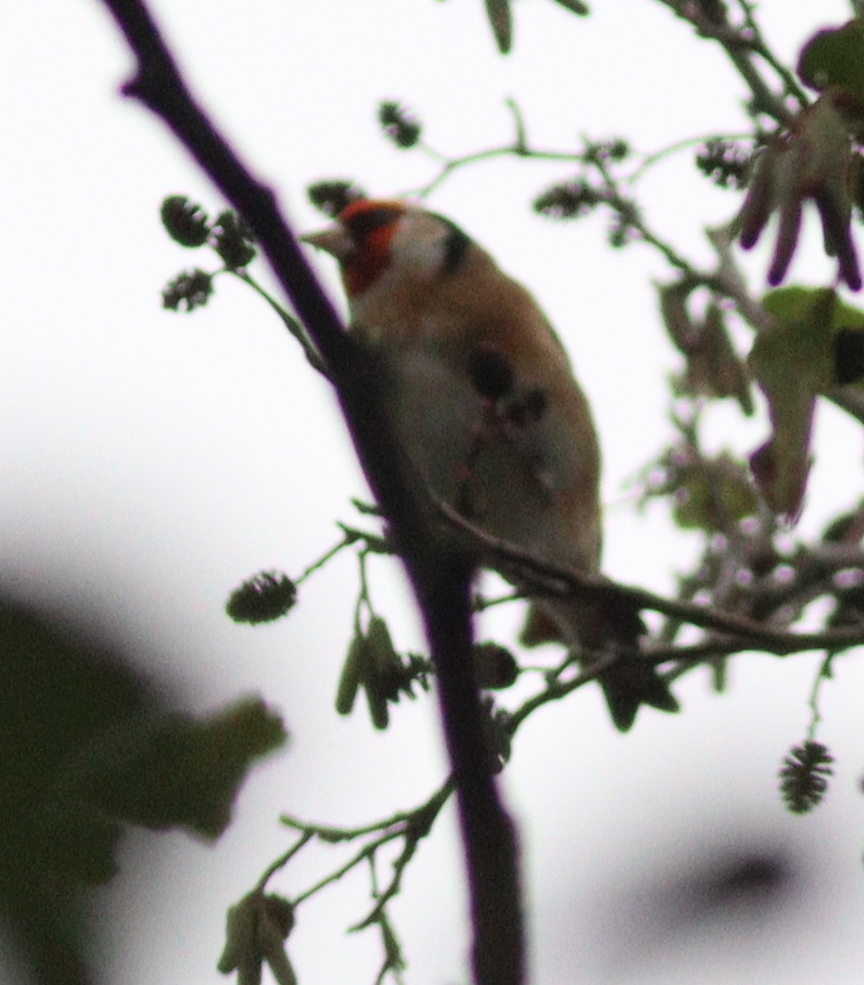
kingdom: Animalia
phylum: Chordata
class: Aves
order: Passeriformes
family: Fringillidae
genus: Carduelis
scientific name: Carduelis carduelis
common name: European goldfinch
